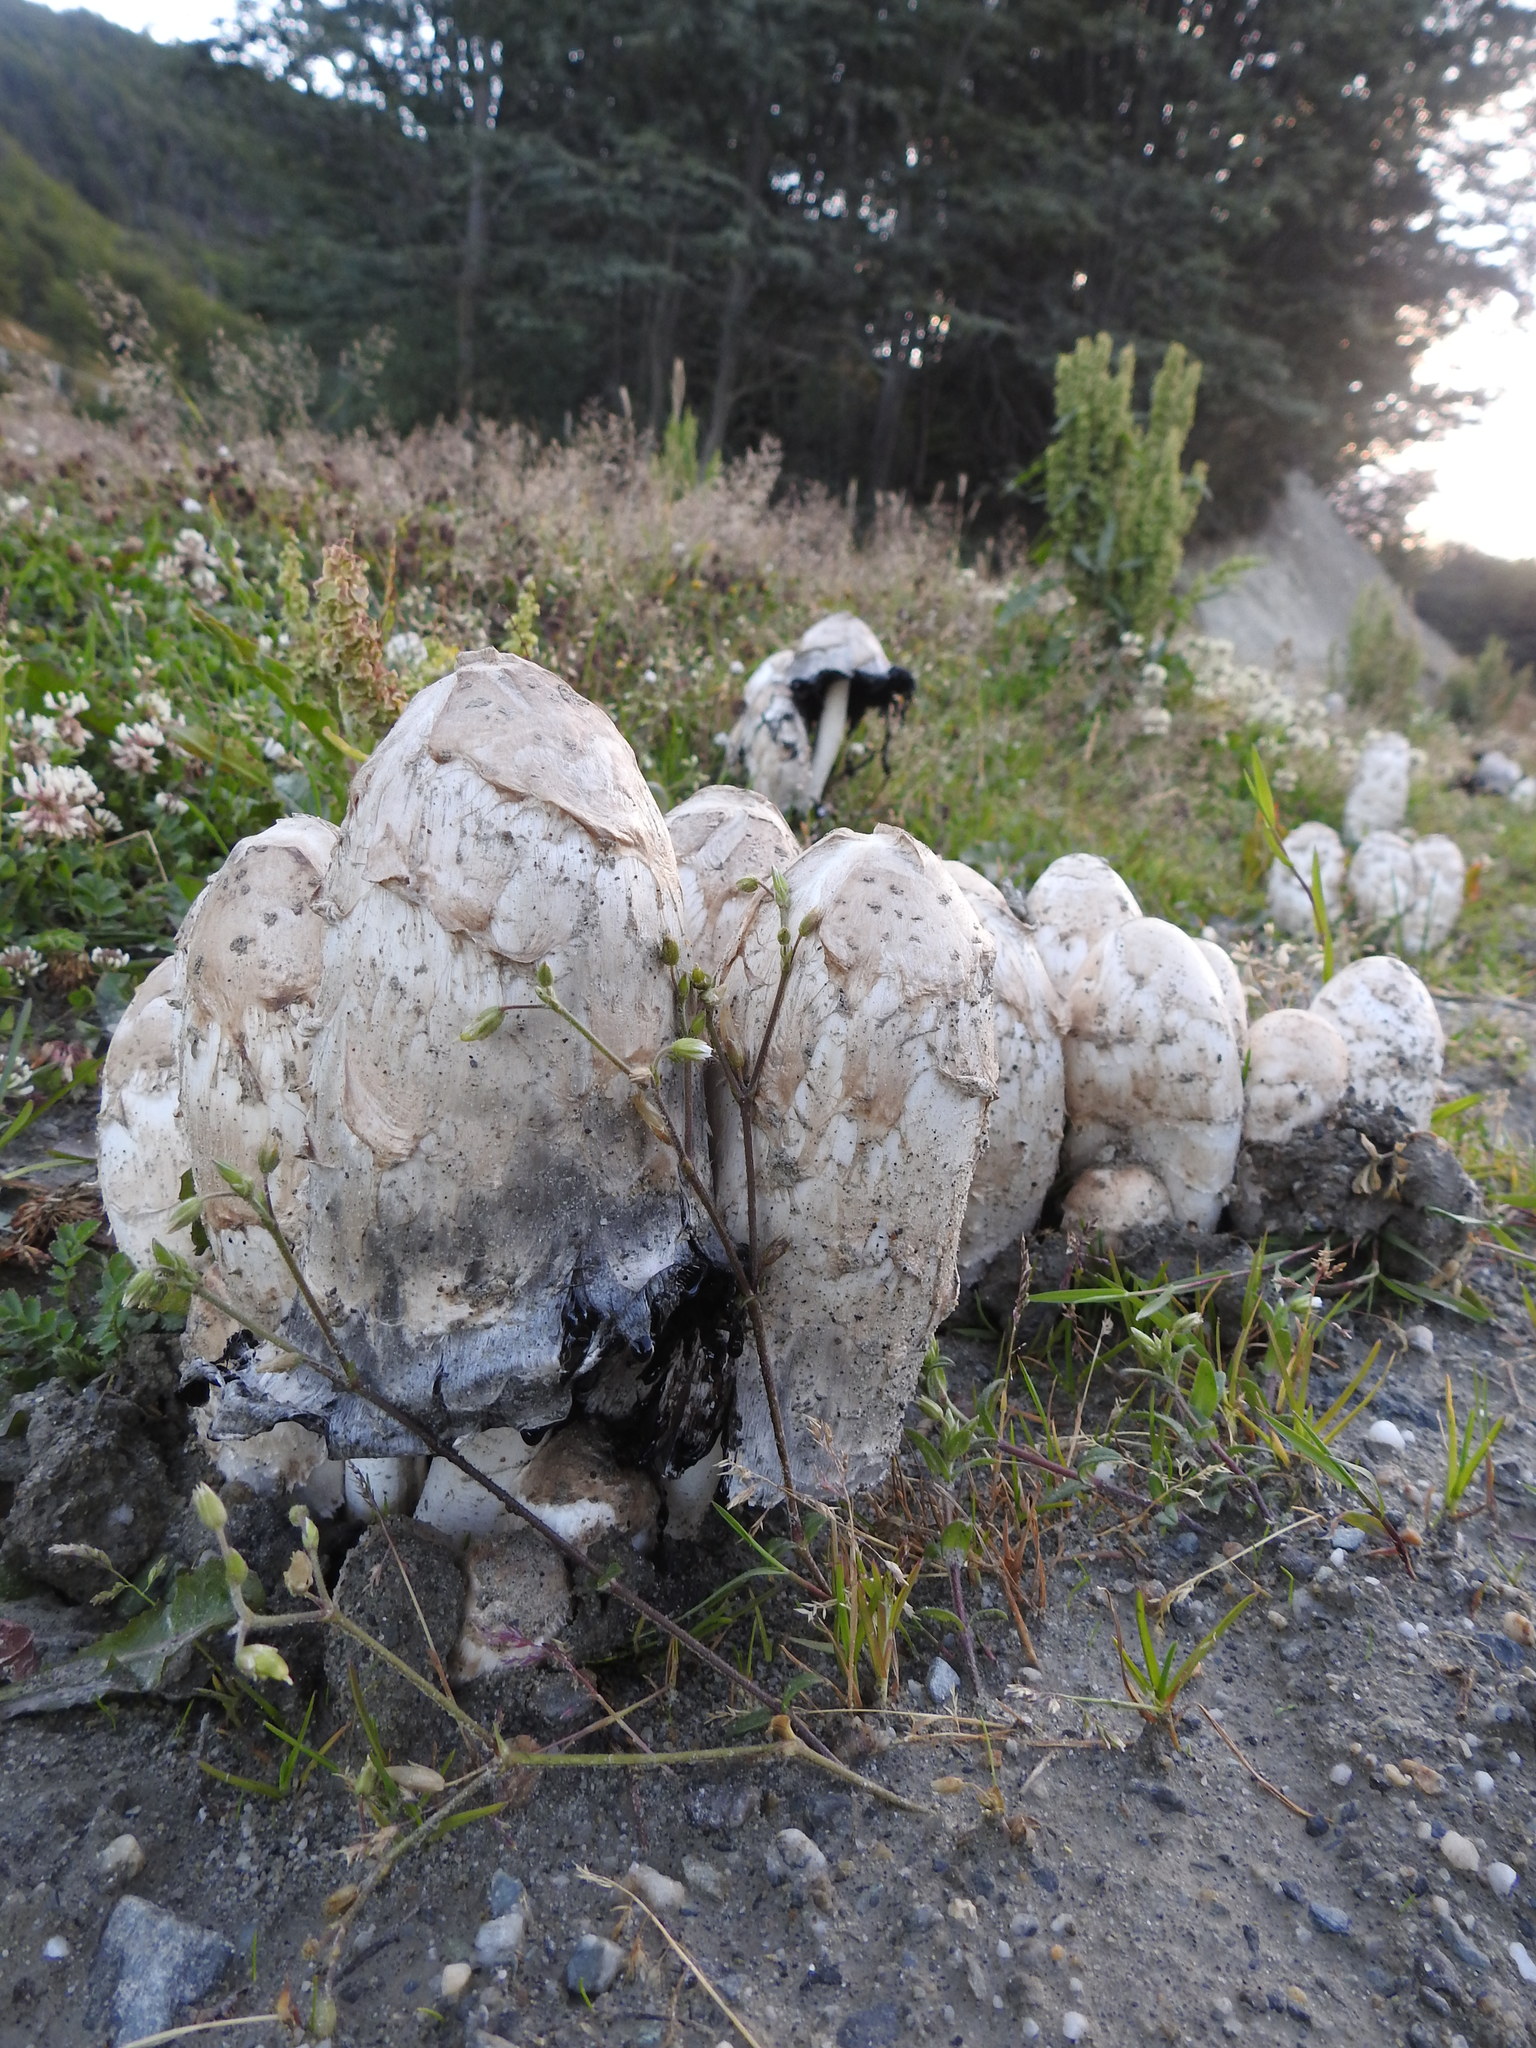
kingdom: Fungi
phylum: Basidiomycota
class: Agaricomycetes
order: Agaricales
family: Agaricaceae
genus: Coprinus
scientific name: Coprinus comatus
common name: Lawyer's wig
